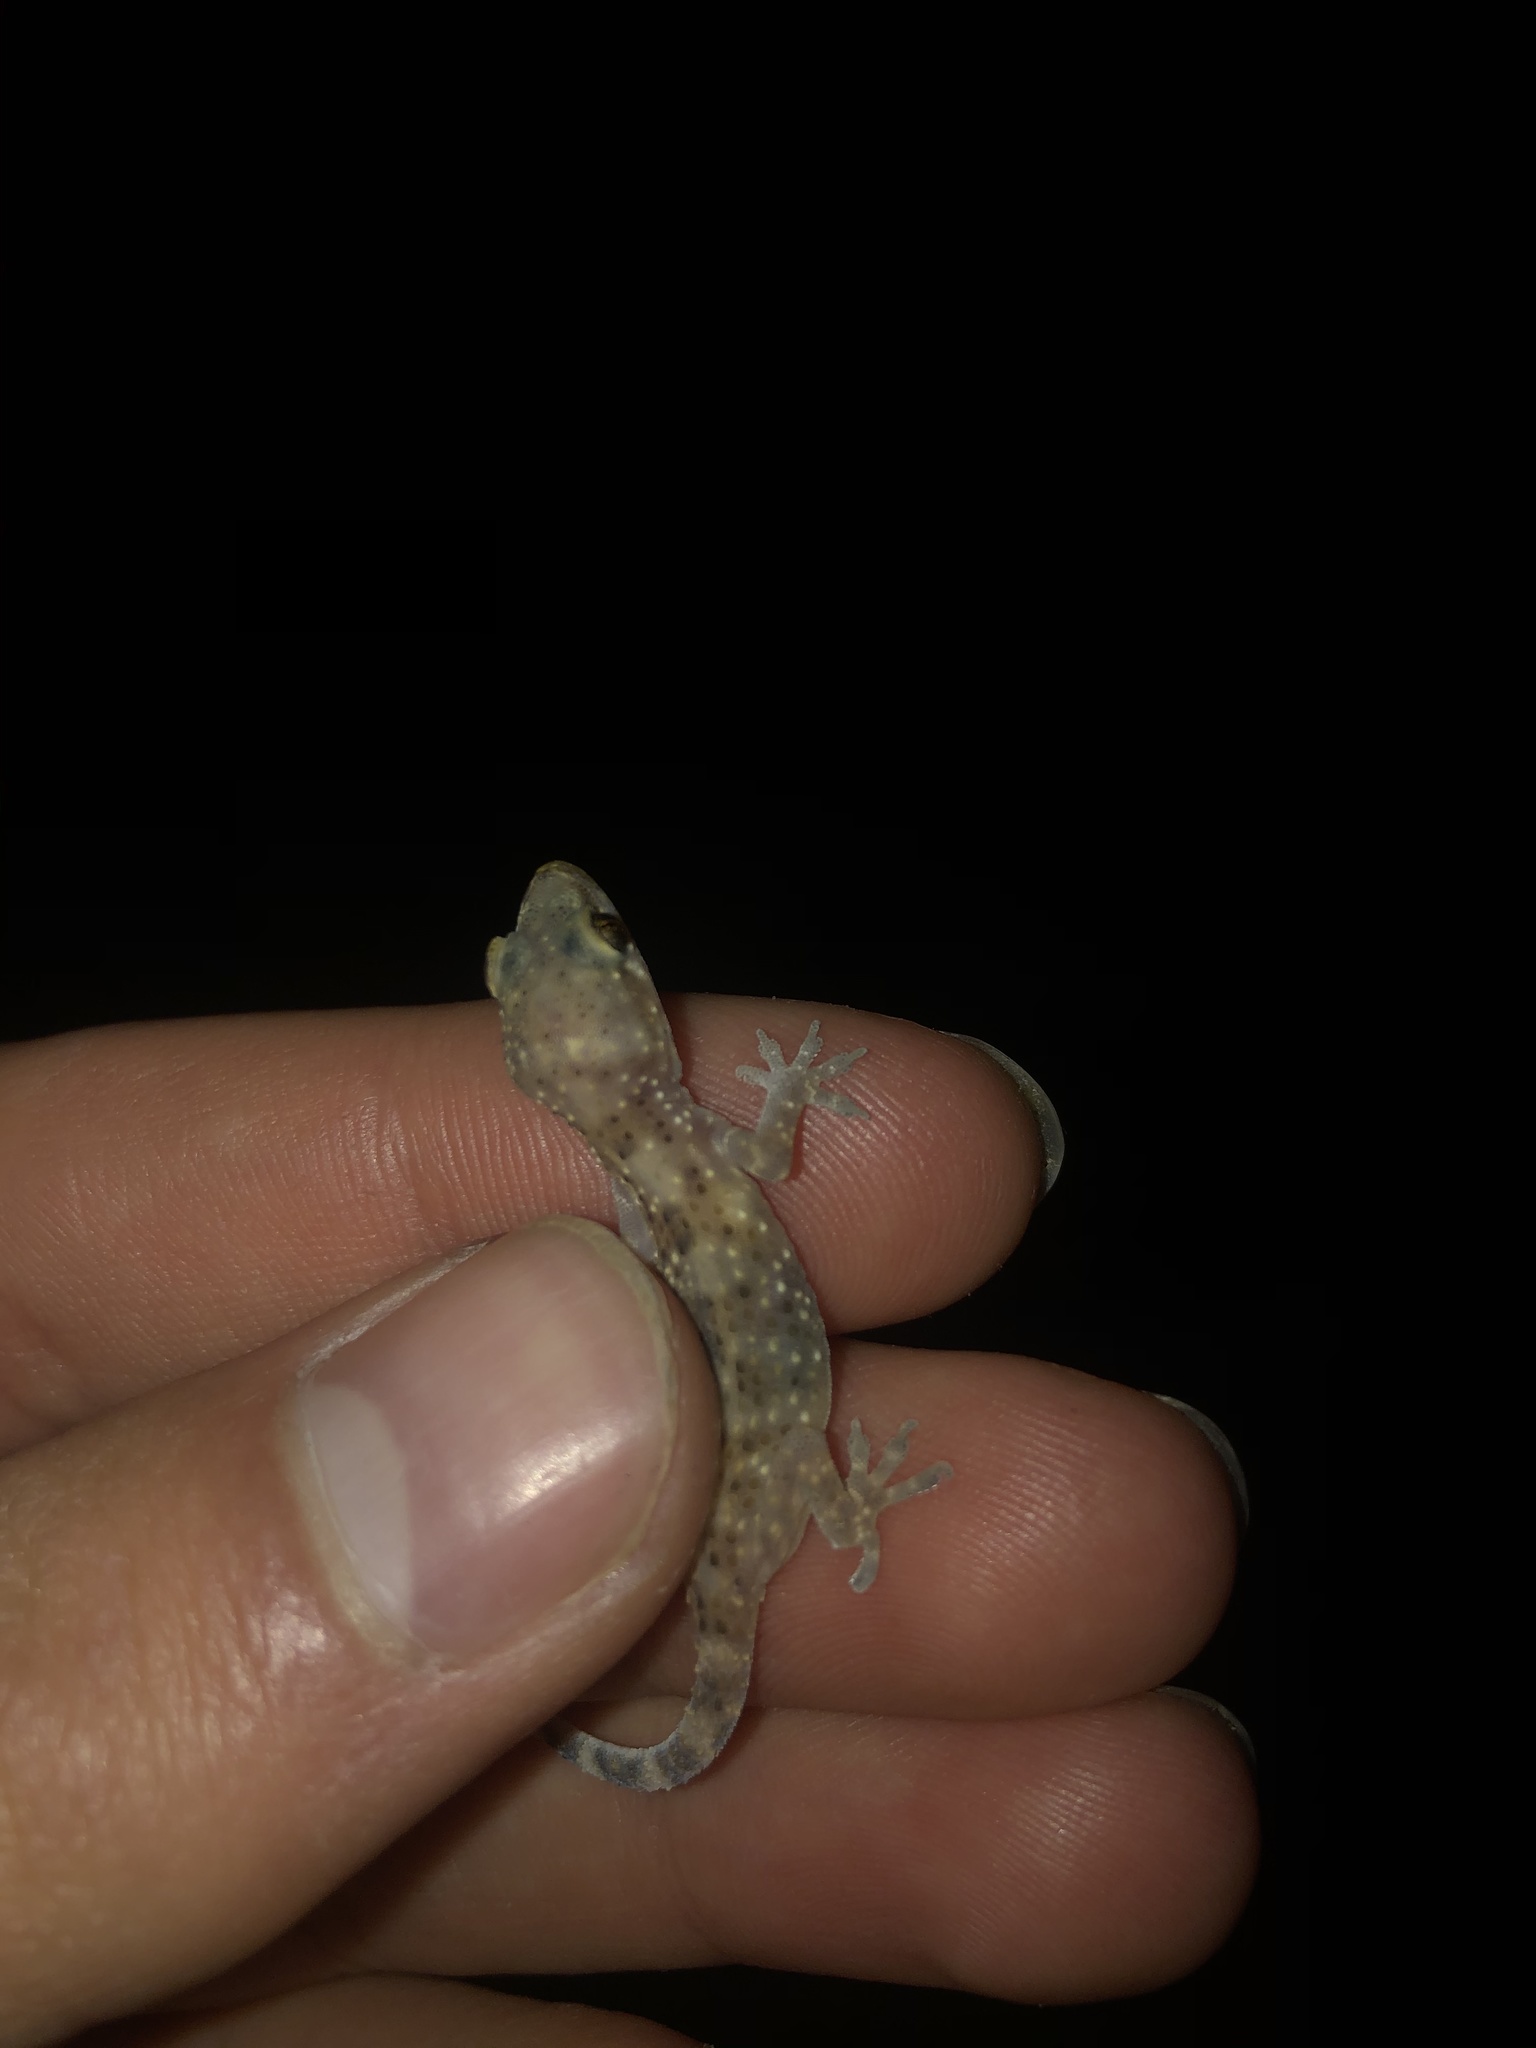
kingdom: Animalia
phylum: Chordata
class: Squamata
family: Gekkonidae
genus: Hemidactylus
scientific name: Hemidactylus turcicus
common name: Turkish gecko
